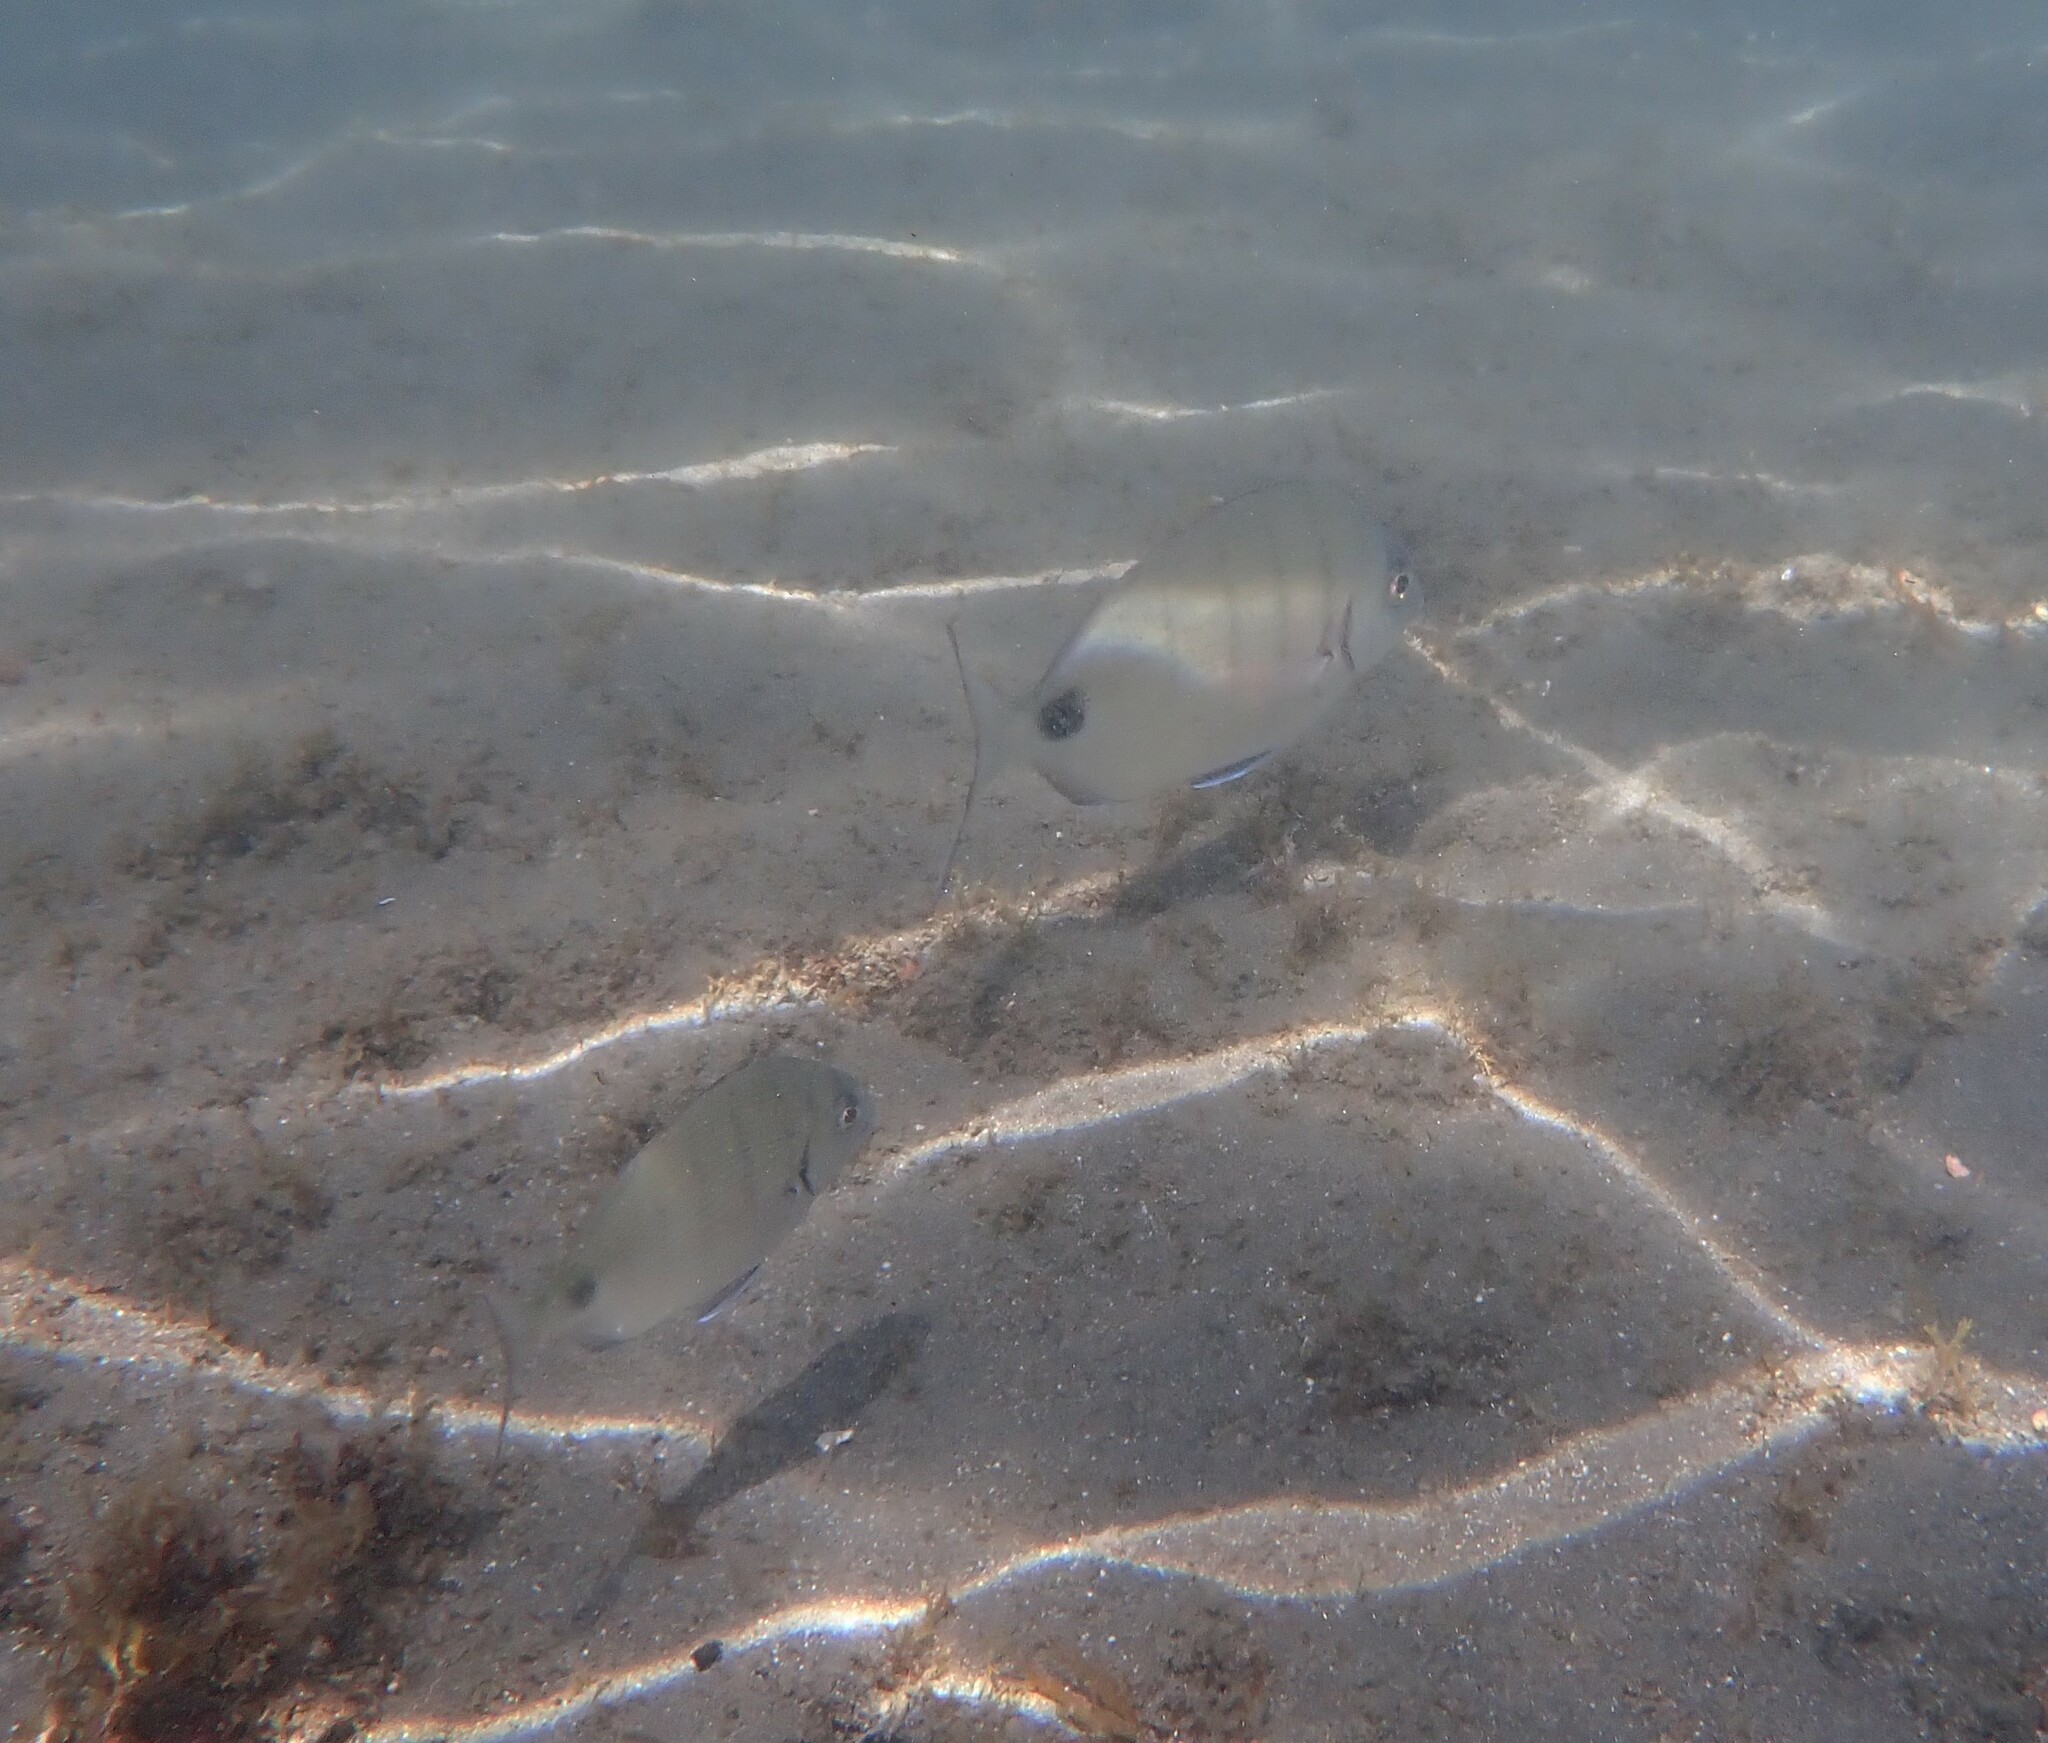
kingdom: Animalia
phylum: Chordata
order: Perciformes
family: Sparidae
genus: Diplodus
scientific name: Diplodus cadenati
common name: Moroccan white seabream
